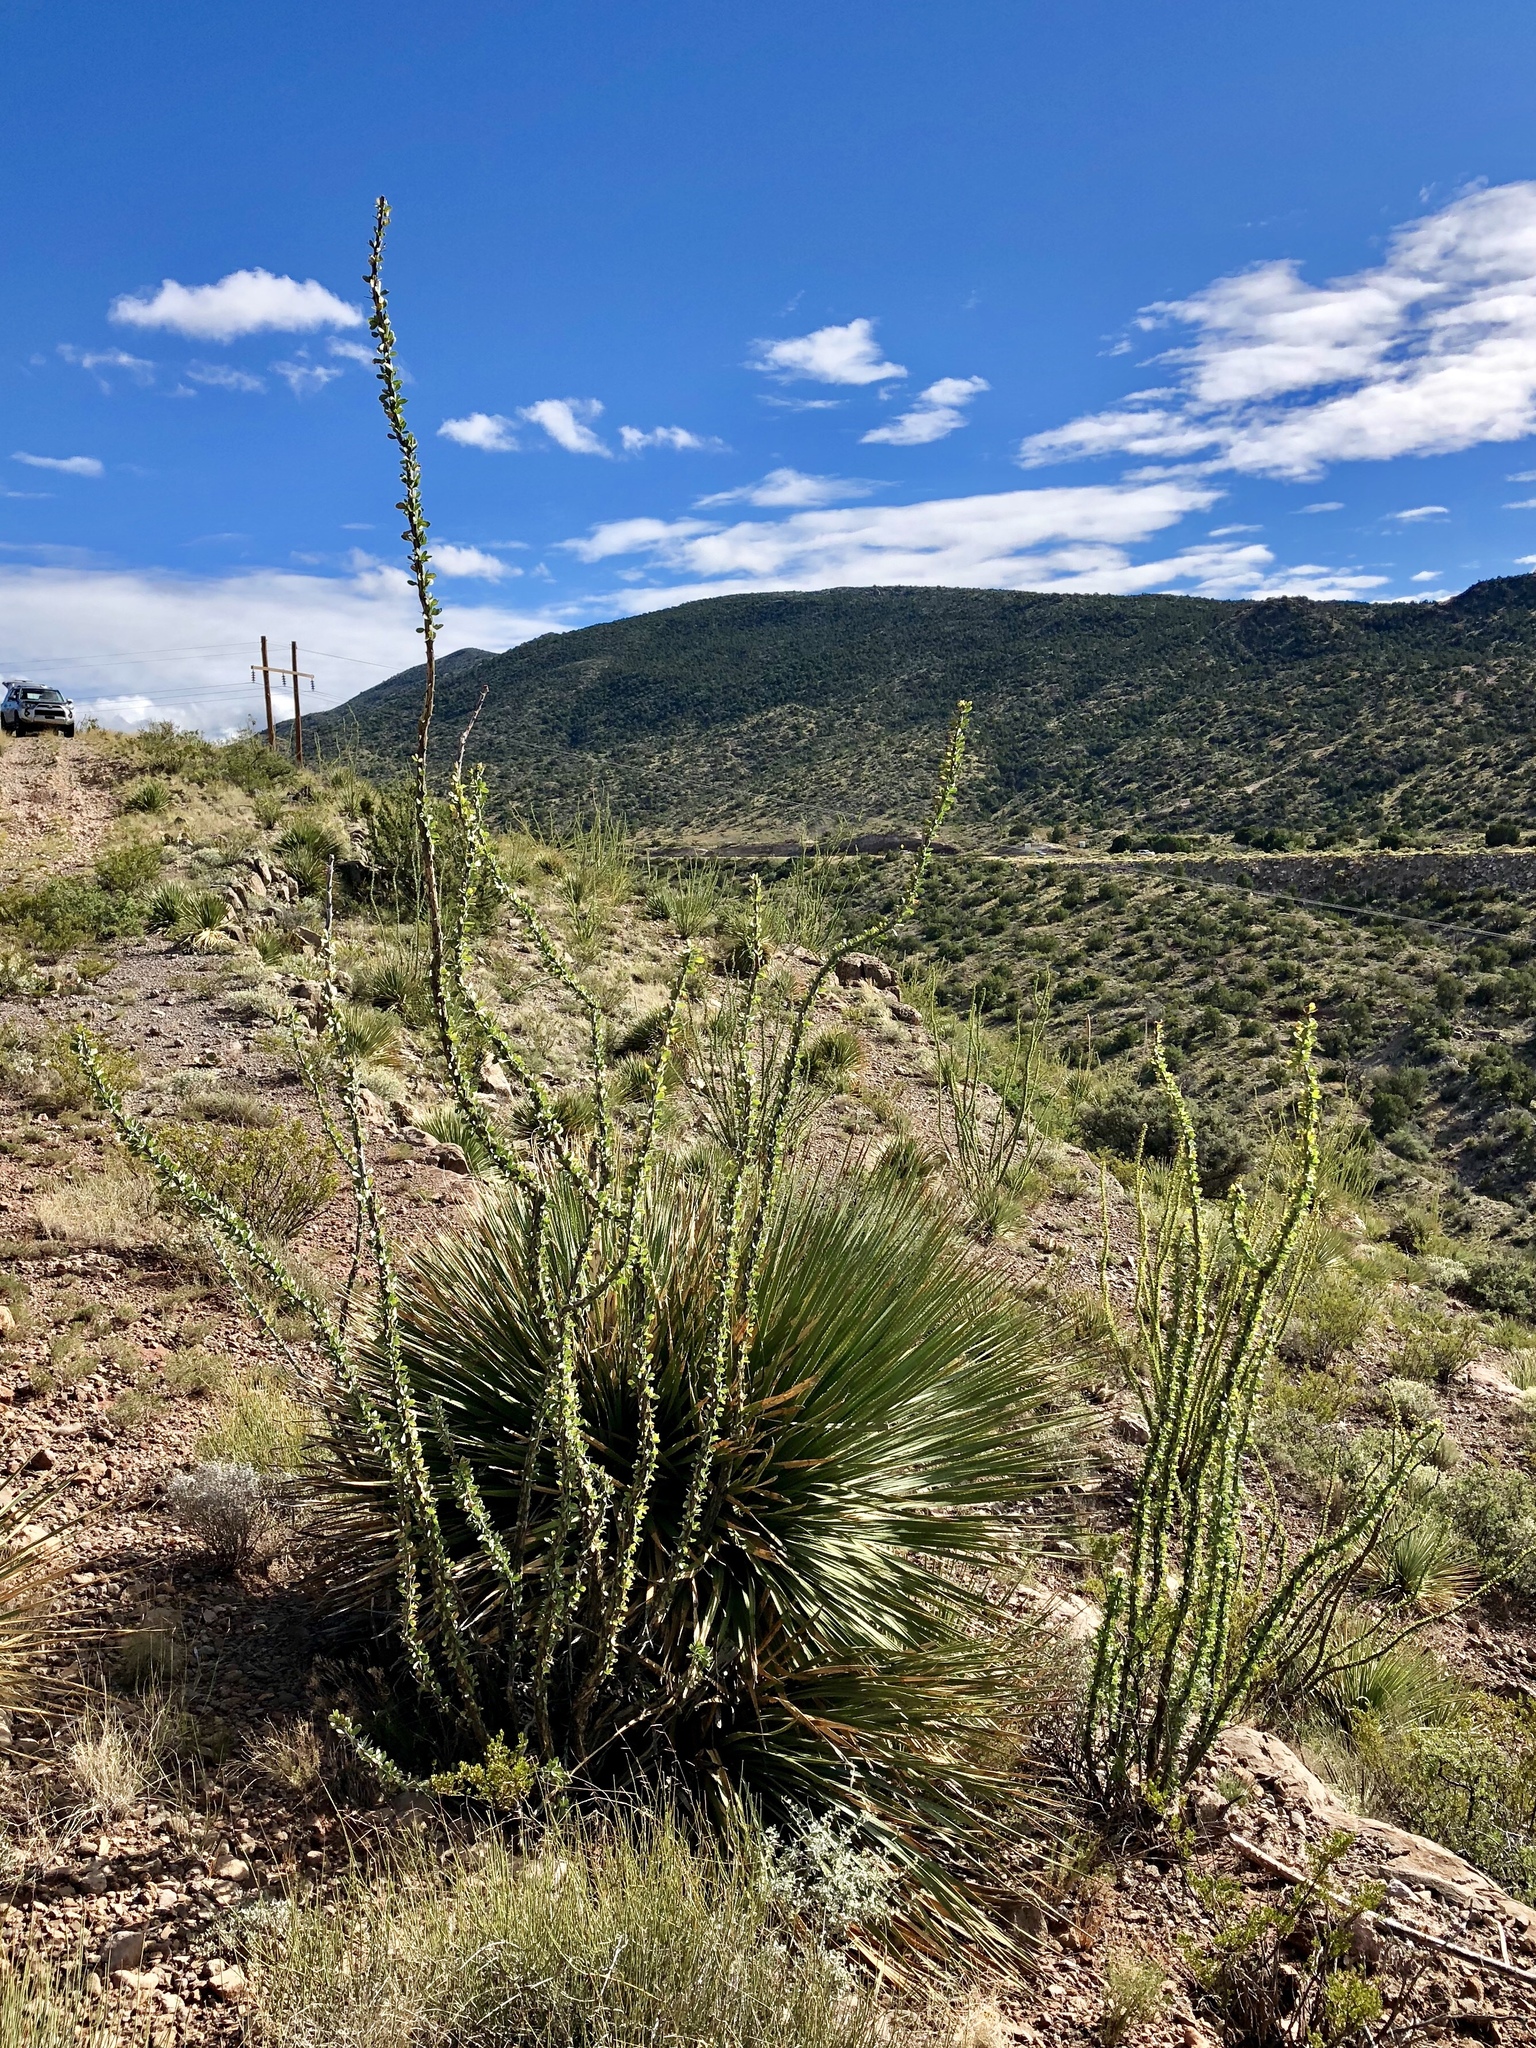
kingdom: Plantae
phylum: Tracheophyta
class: Magnoliopsida
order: Ericales
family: Fouquieriaceae
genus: Fouquieria
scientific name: Fouquieria splendens
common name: Vine-cactus
